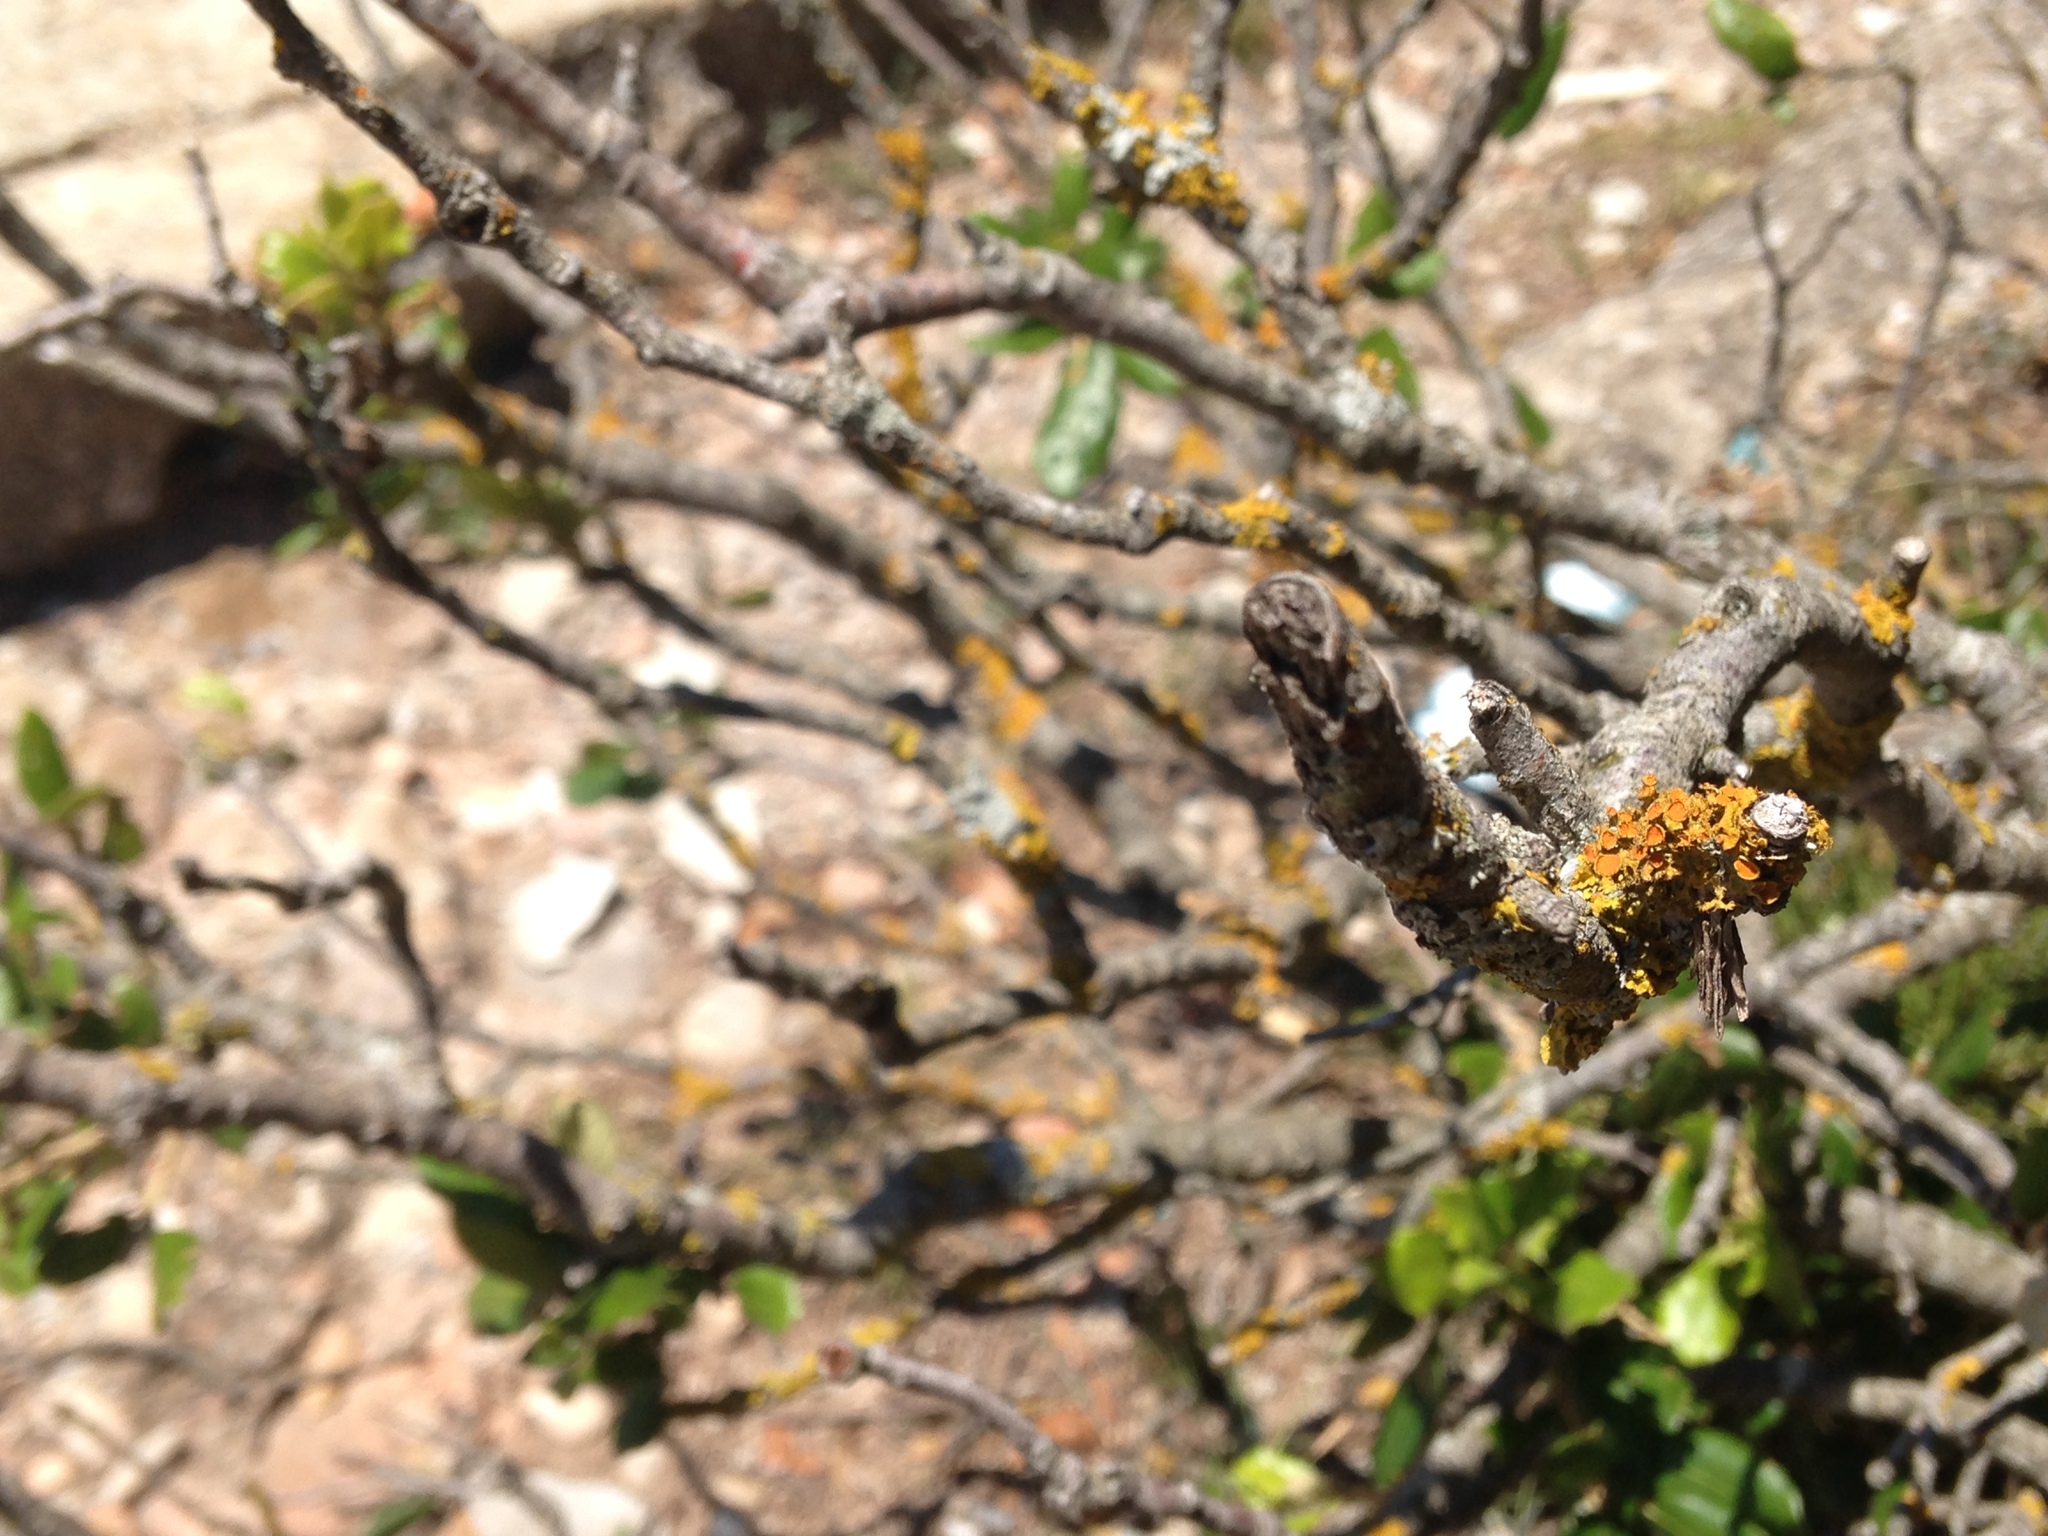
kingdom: Fungi
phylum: Ascomycota
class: Lecanoromycetes
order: Teloschistales
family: Teloschistaceae
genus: Niorma
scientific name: Niorma chrysophthalma
